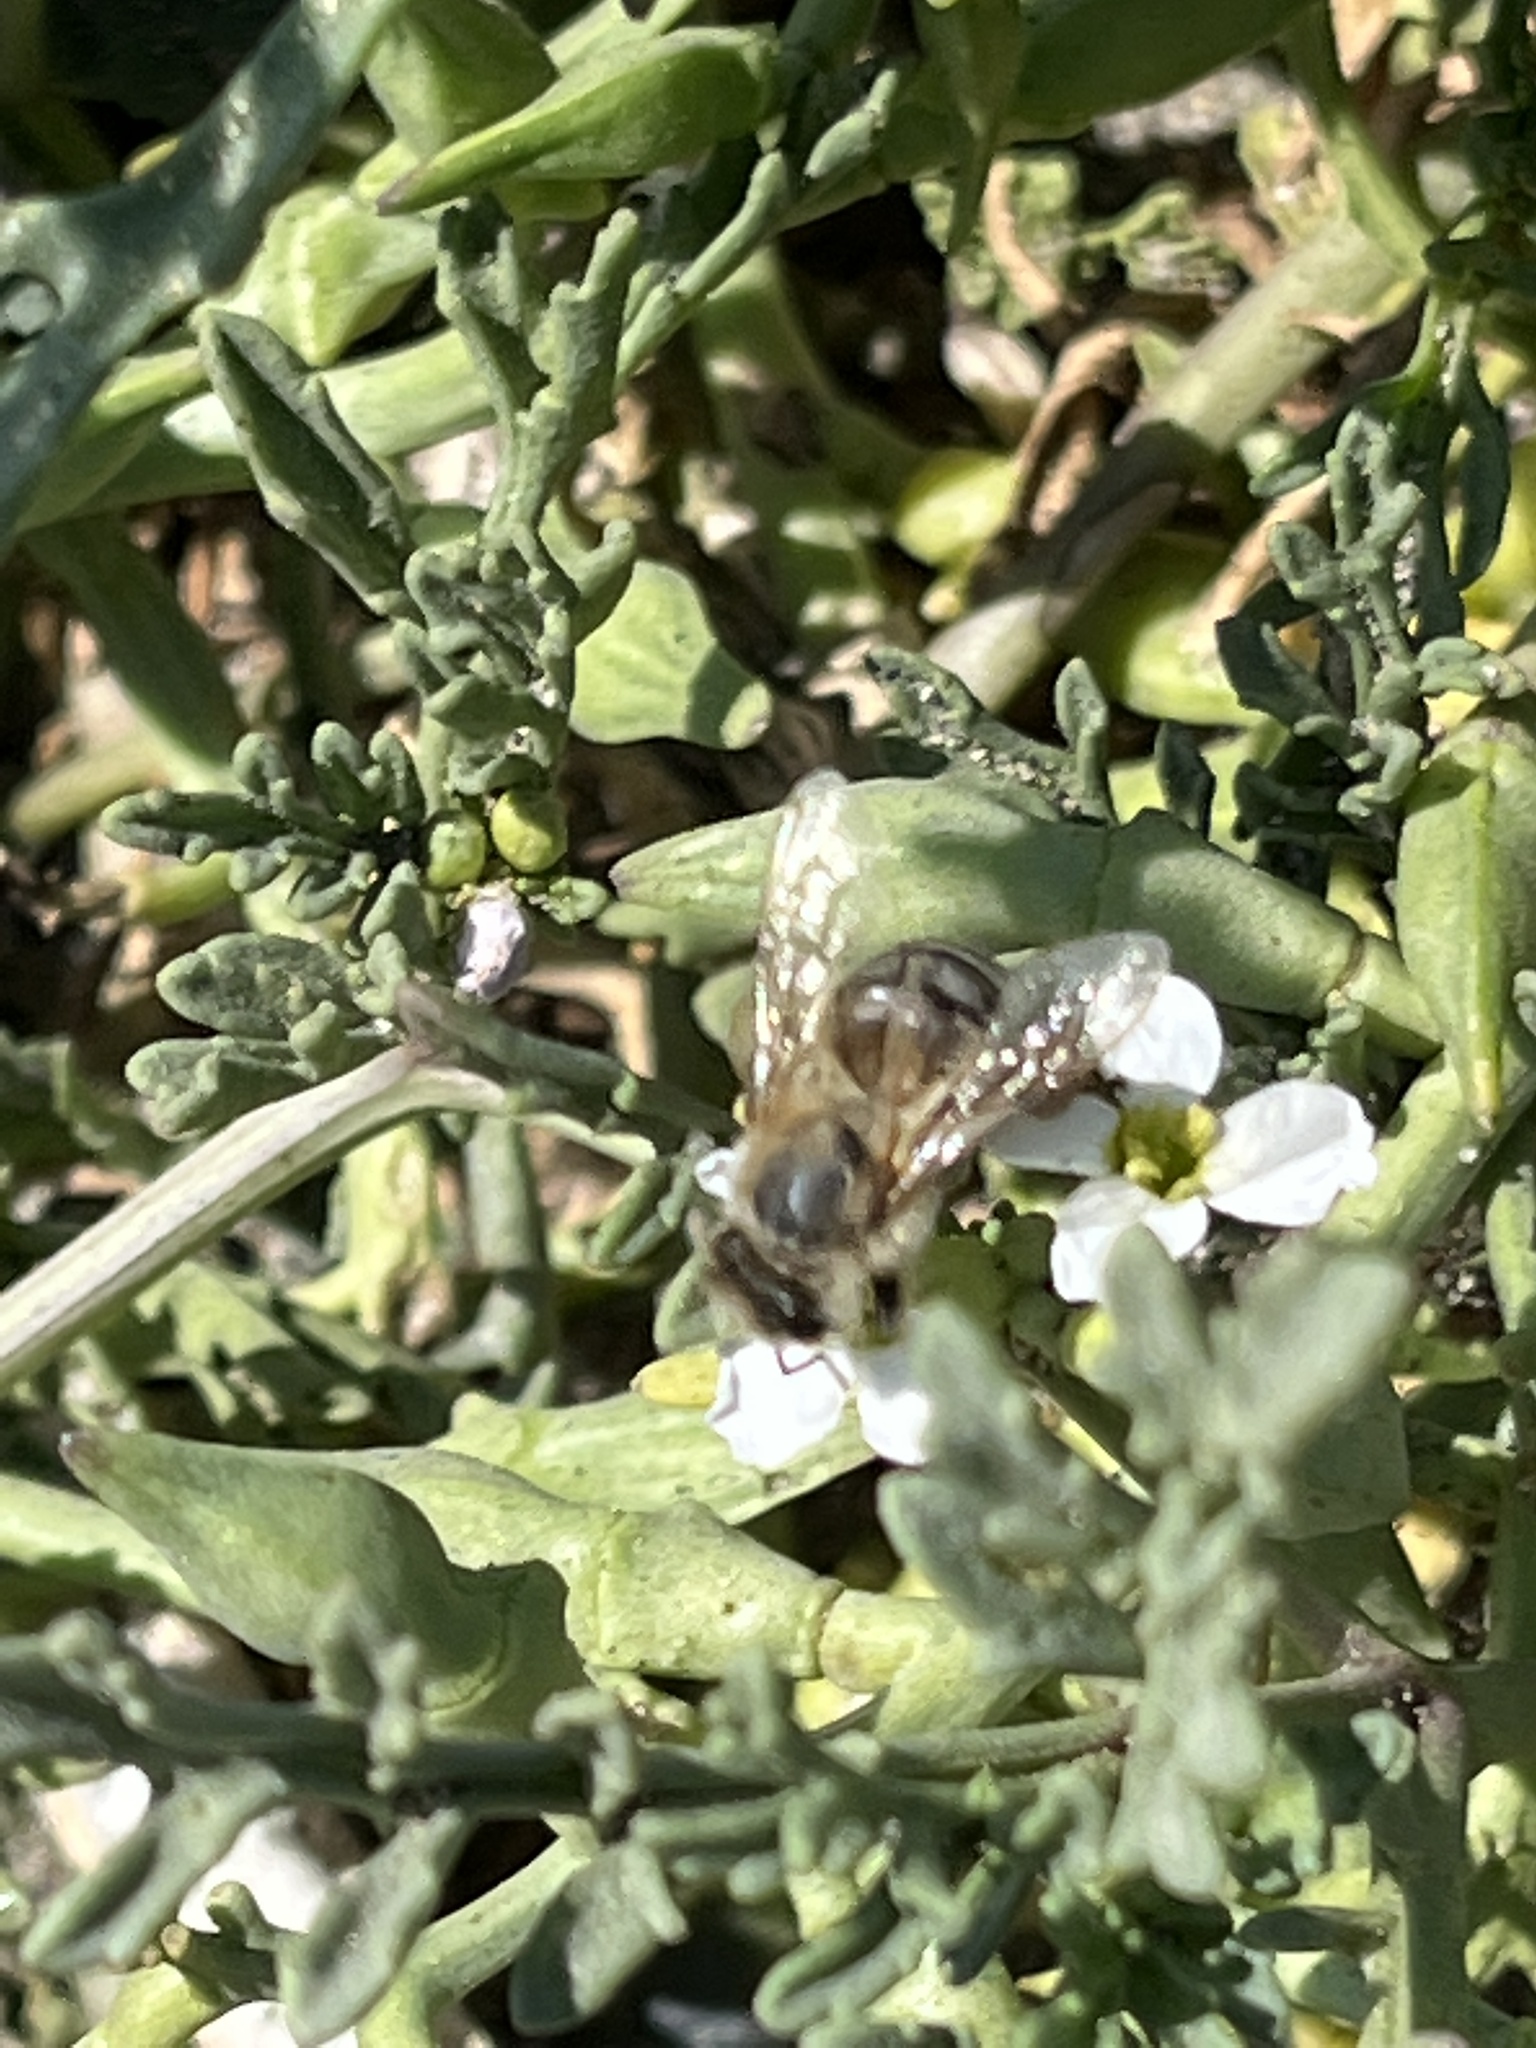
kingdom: Animalia
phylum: Arthropoda
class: Insecta
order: Hymenoptera
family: Apidae
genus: Apis
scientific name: Apis mellifera
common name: Honey bee
